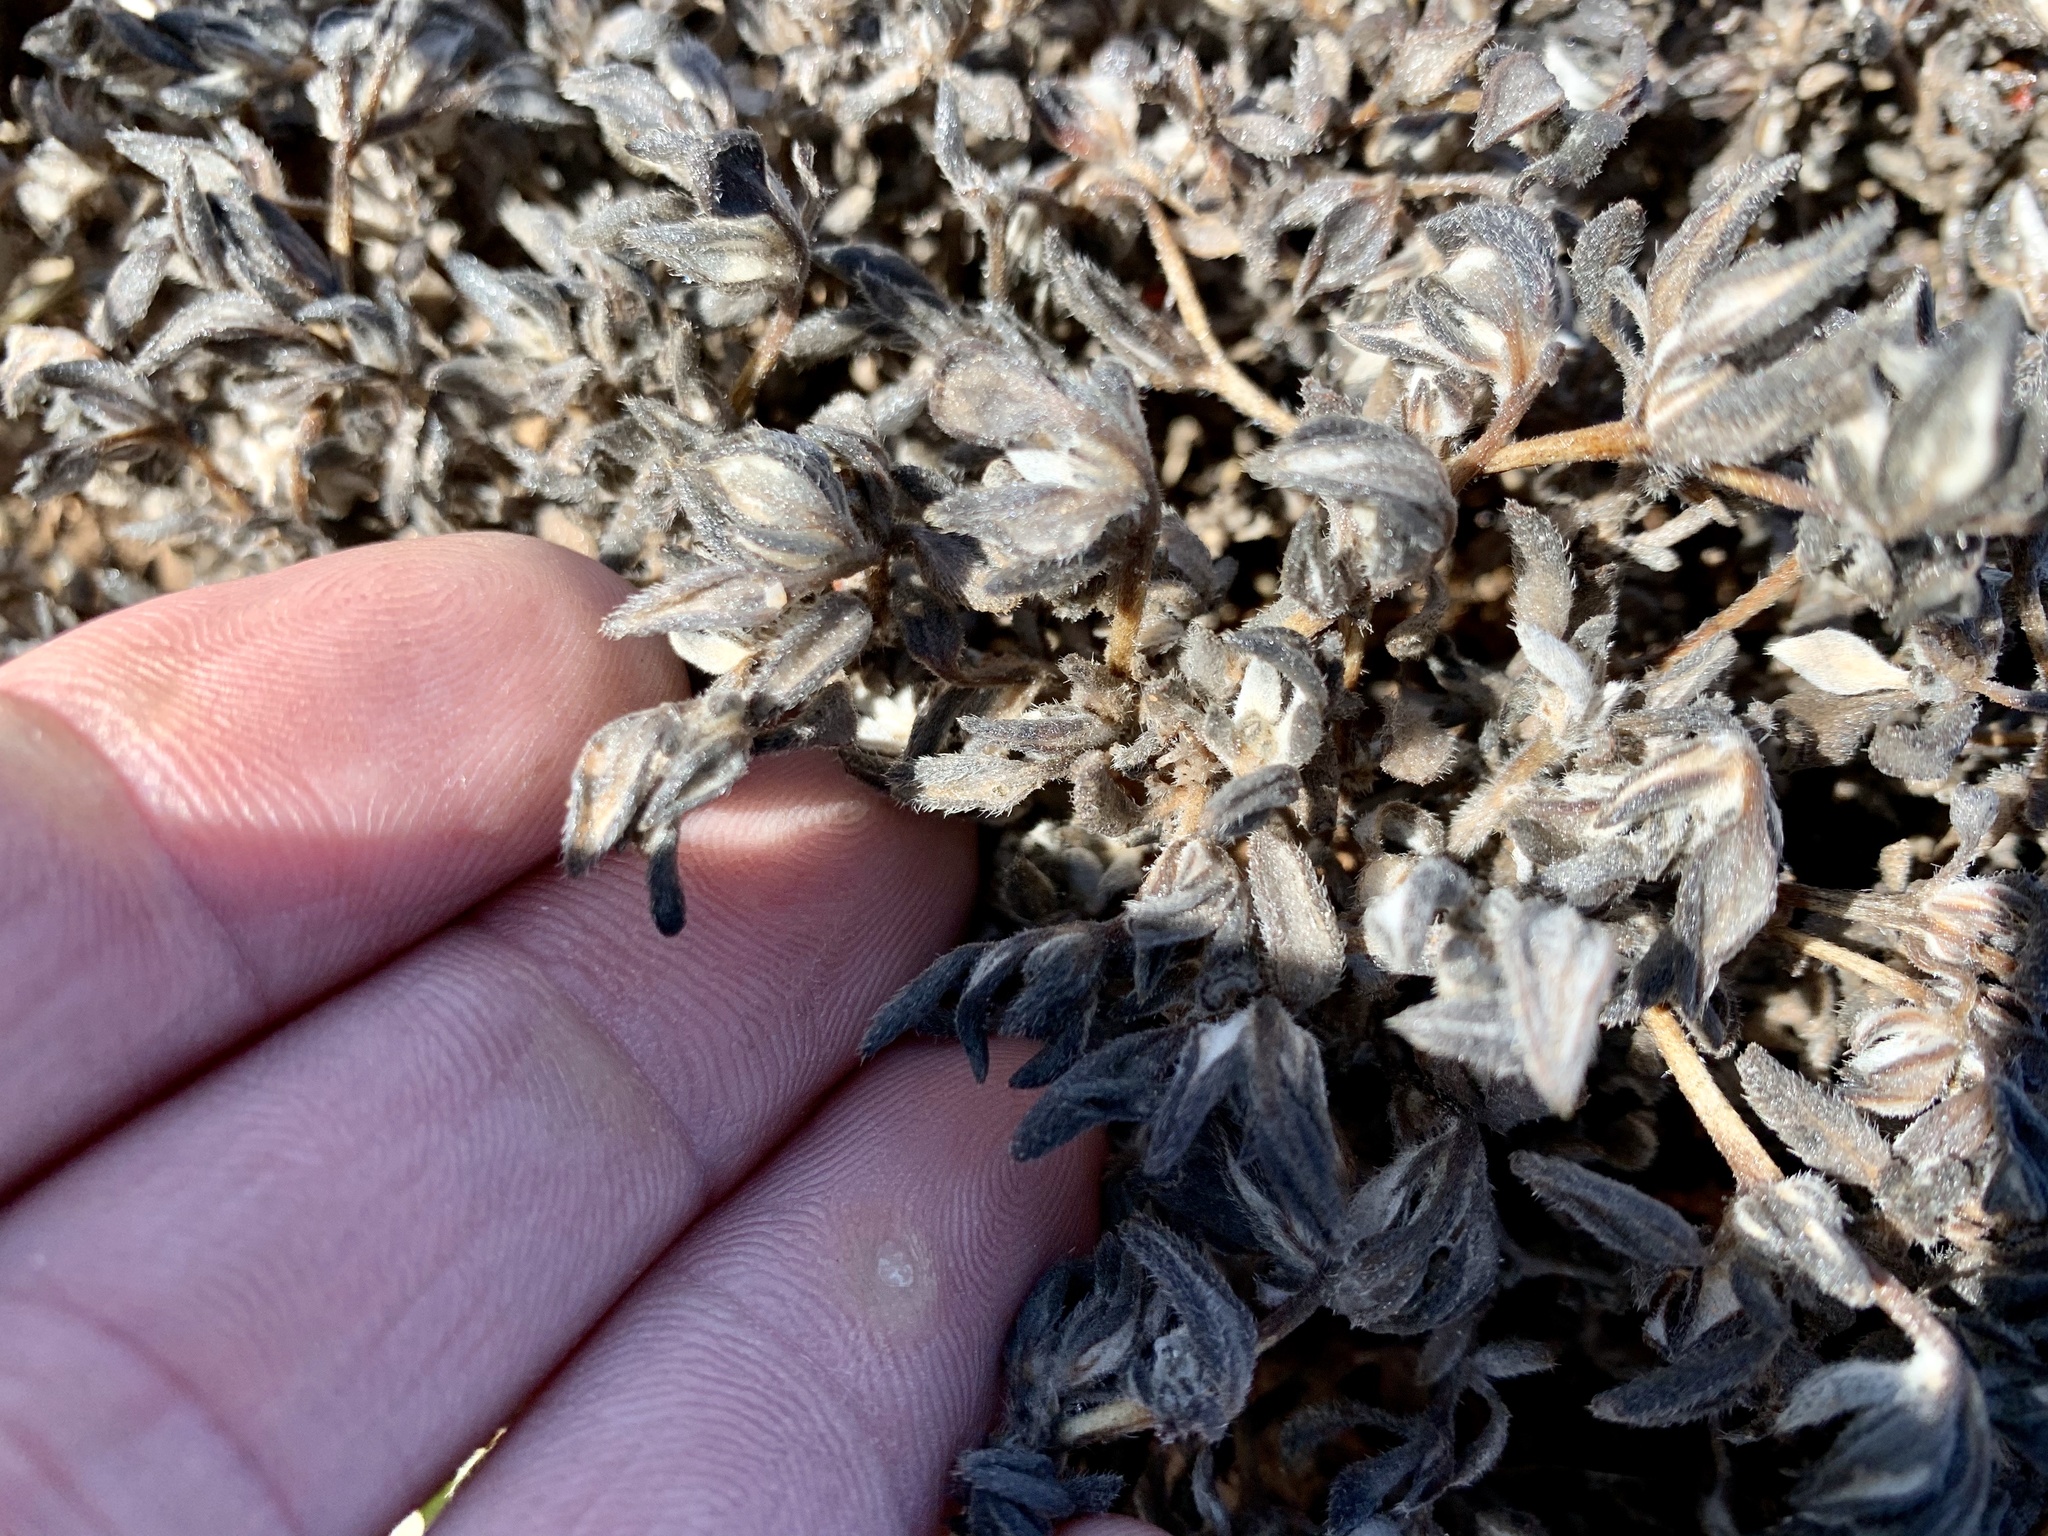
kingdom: Plantae
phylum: Tracheophyta
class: Magnoliopsida
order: Boraginales
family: Ehretiaceae
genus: Tiquilia
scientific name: Tiquilia canescens
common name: Hairy tiquilia
